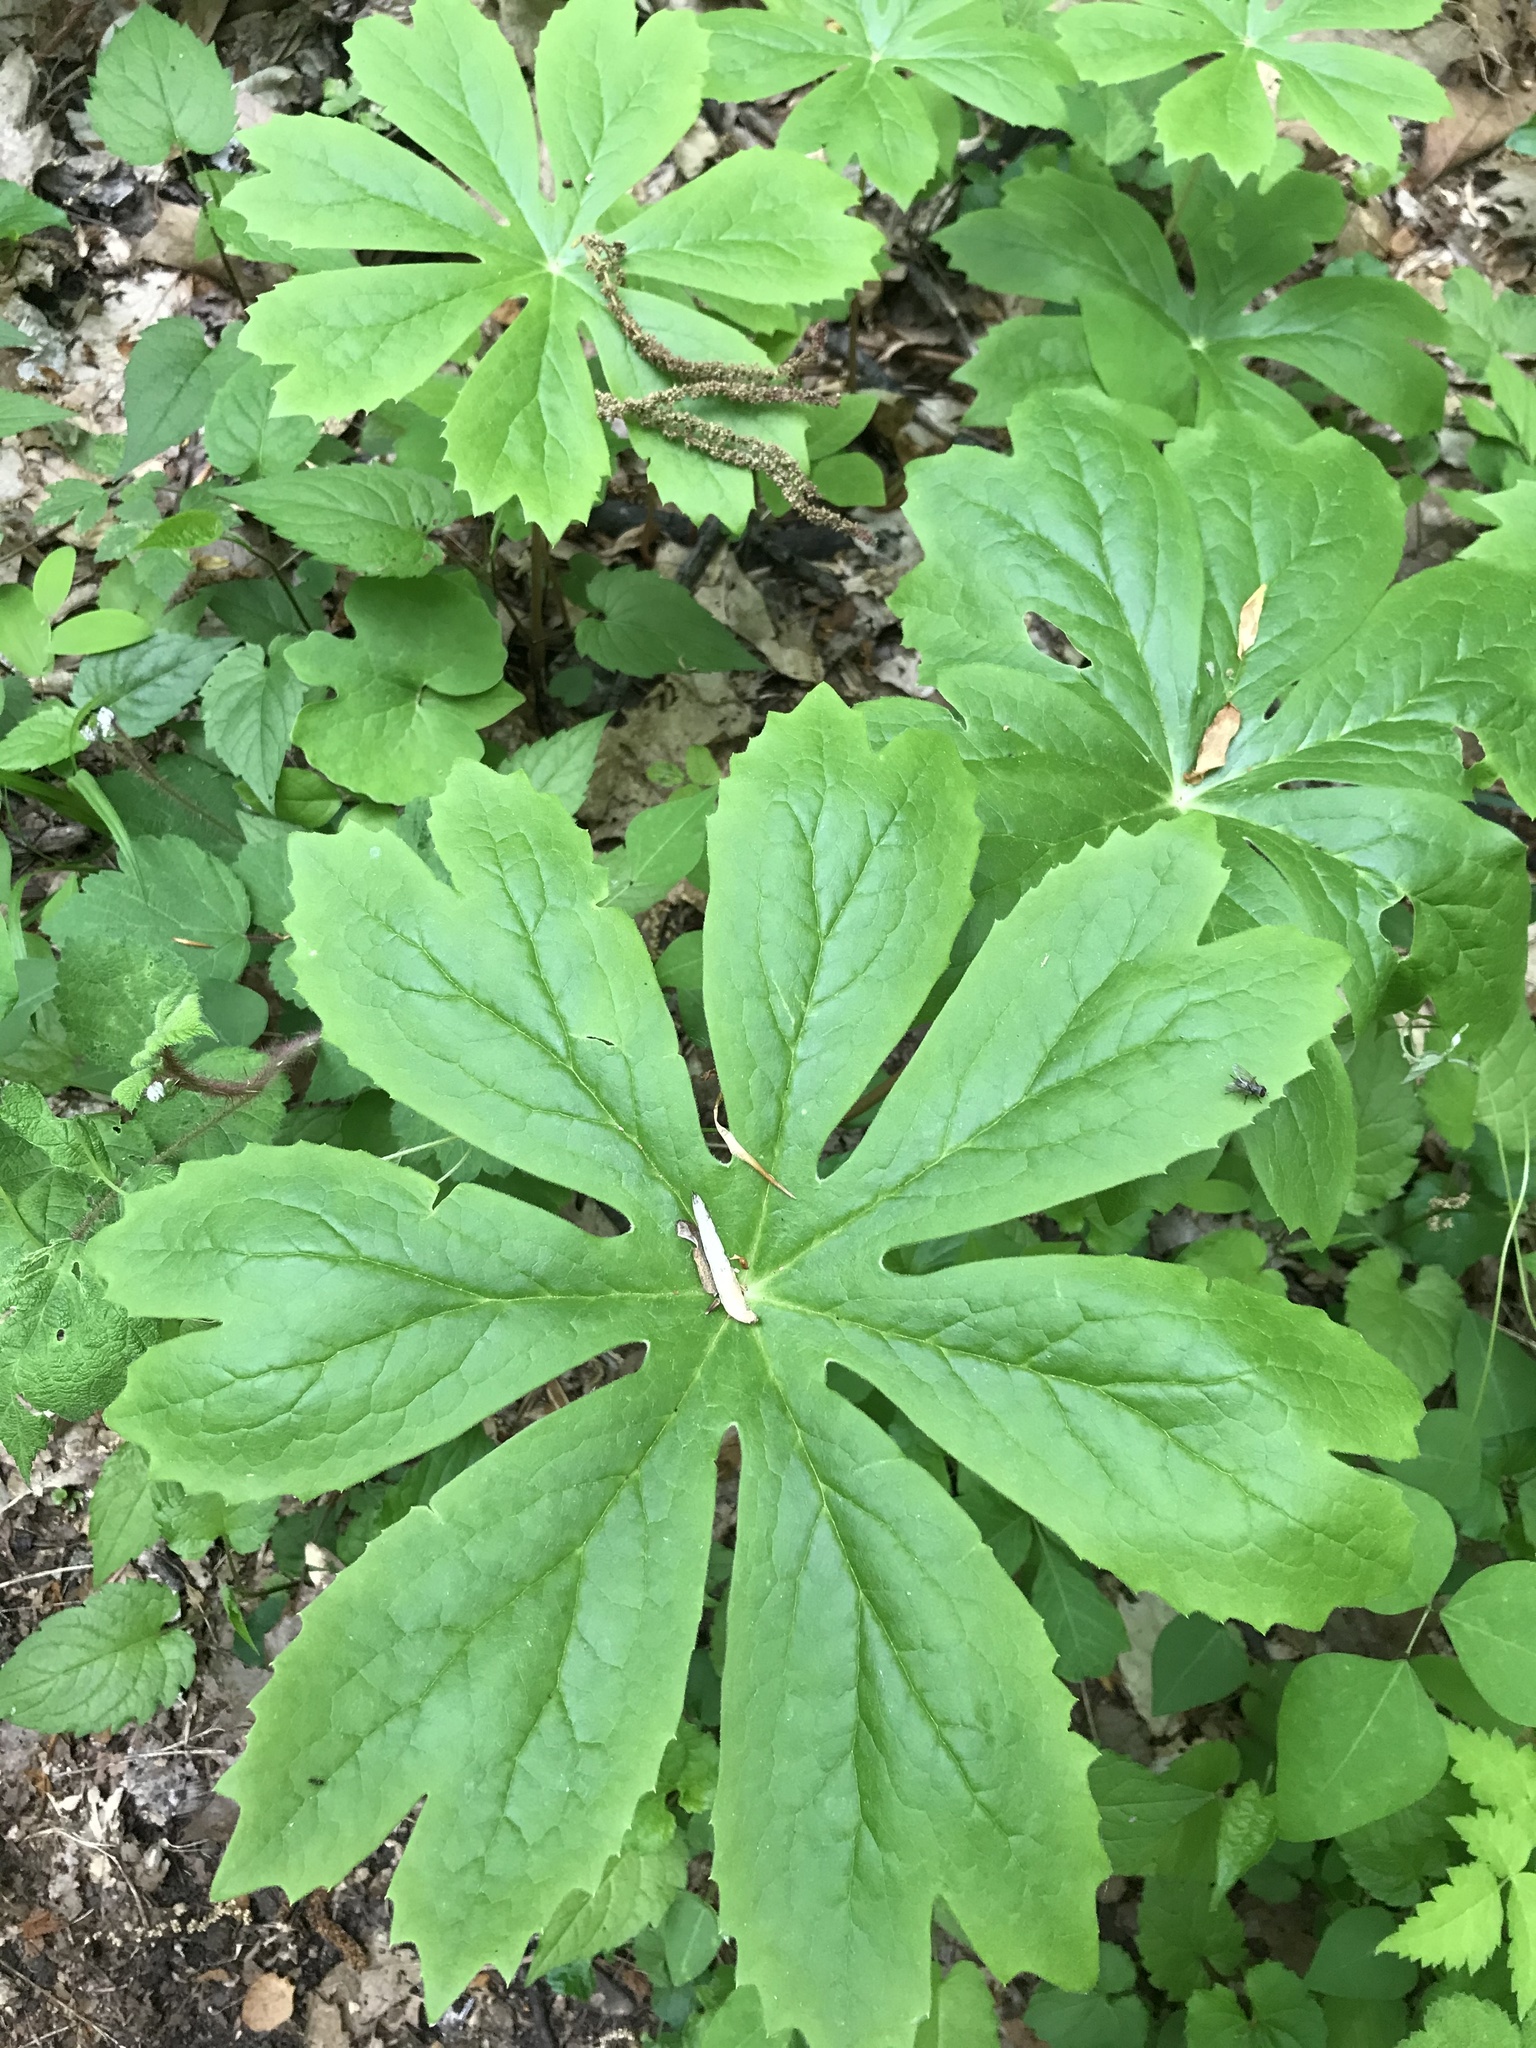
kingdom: Plantae
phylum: Tracheophyta
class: Magnoliopsida
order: Ranunculales
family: Berberidaceae
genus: Podophyllum
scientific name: Podophyllum peltatum
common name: Wild mandrake
